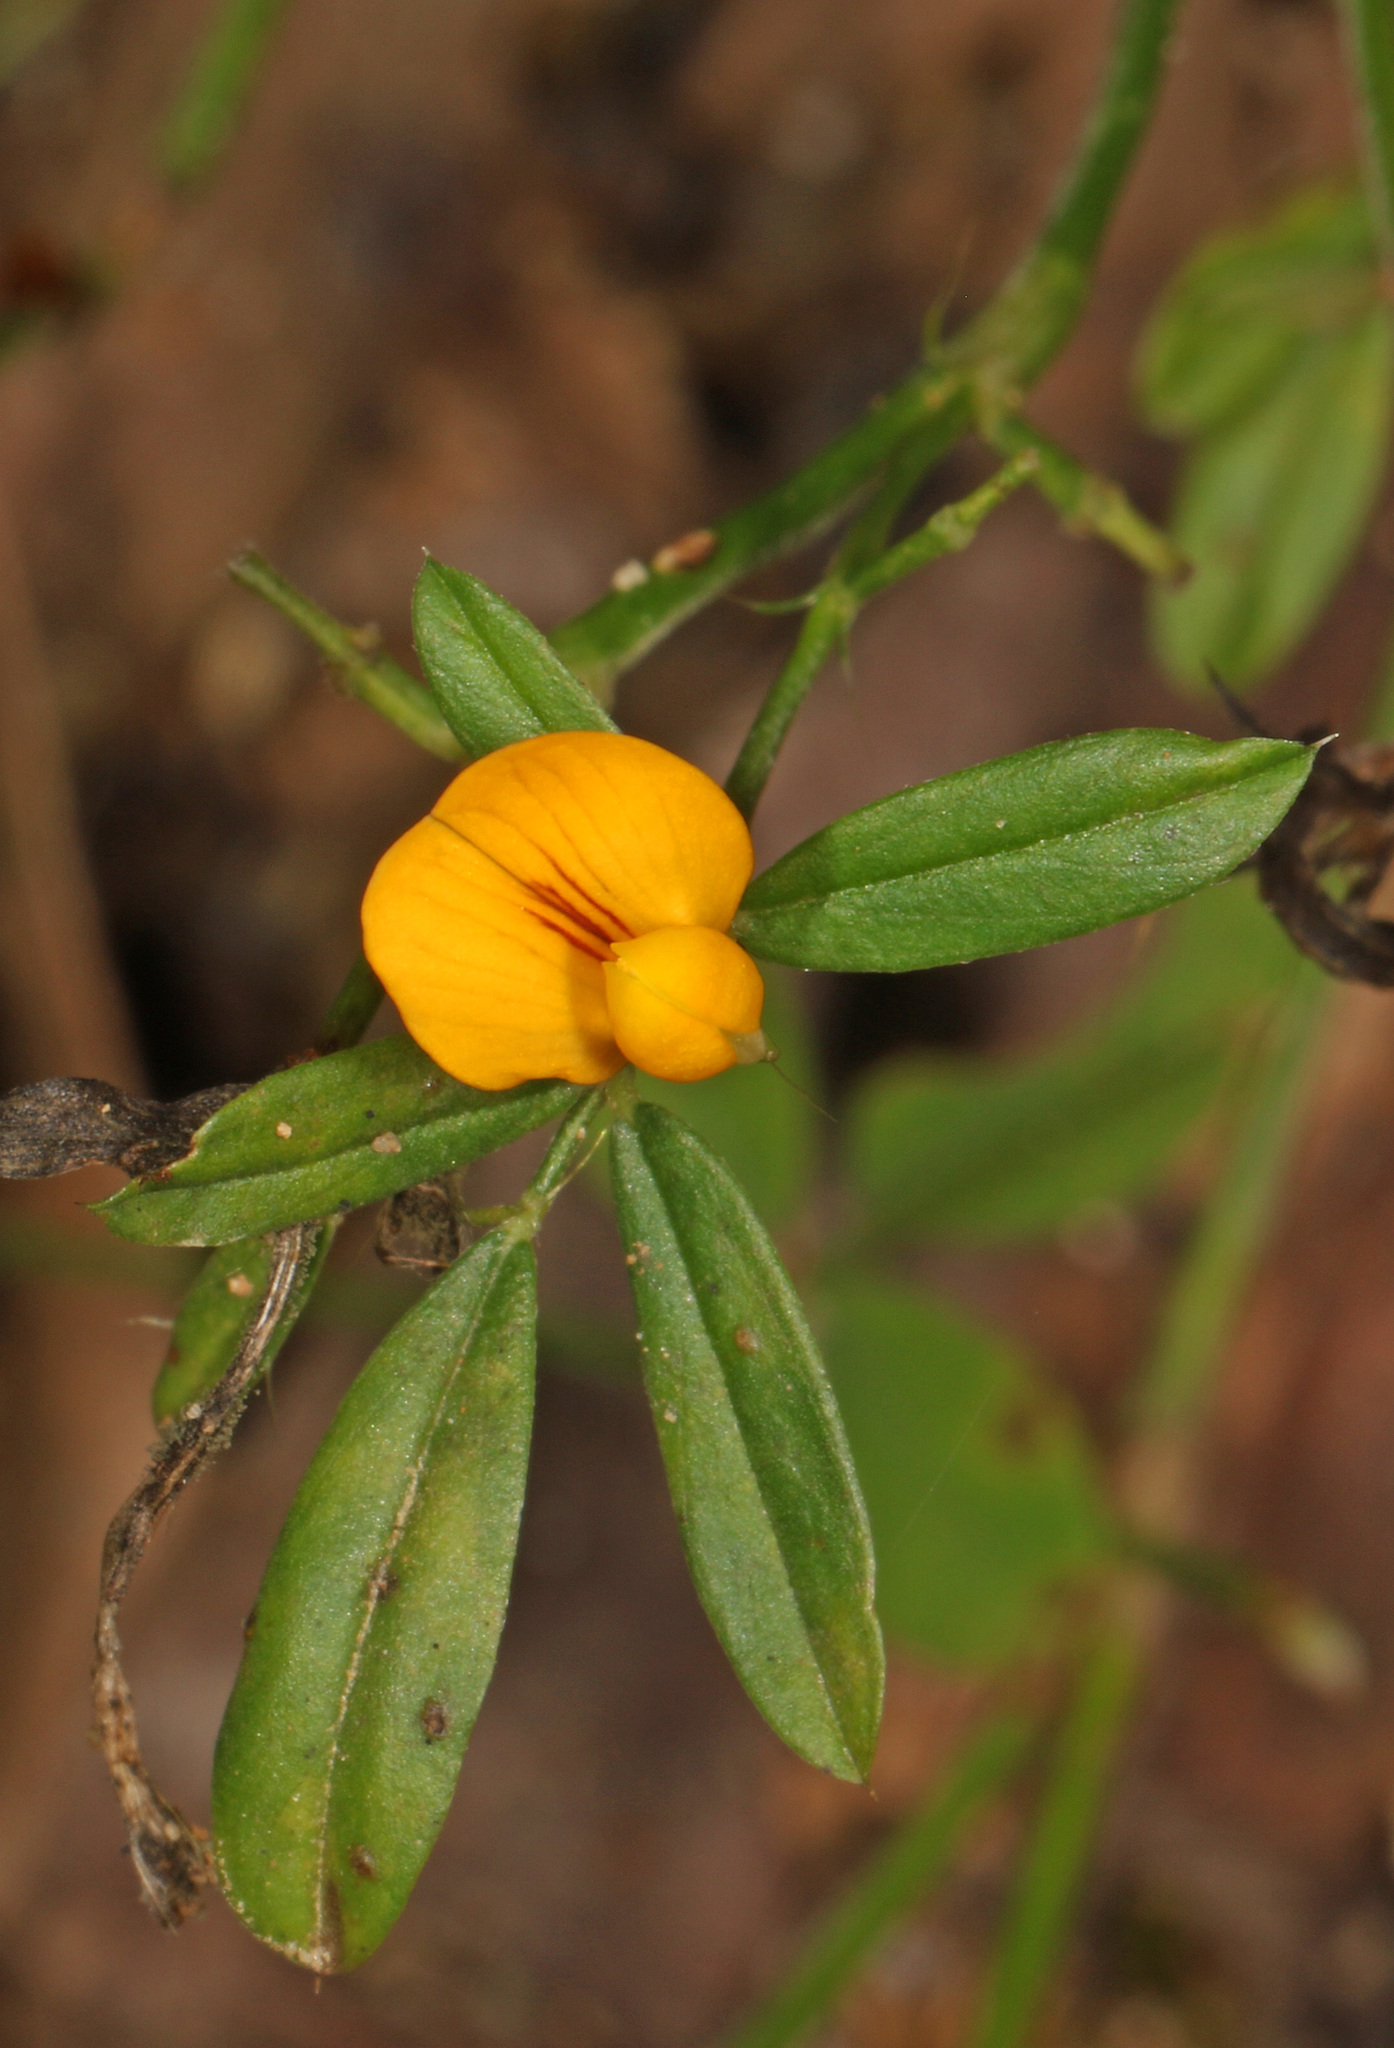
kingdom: Plantae
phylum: Tracheophyta
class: Magnoliopsida
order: Fabales
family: Fabaceae
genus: Stylosanthes
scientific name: Stylosanthes biflora
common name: Two-flower pencil-flower
